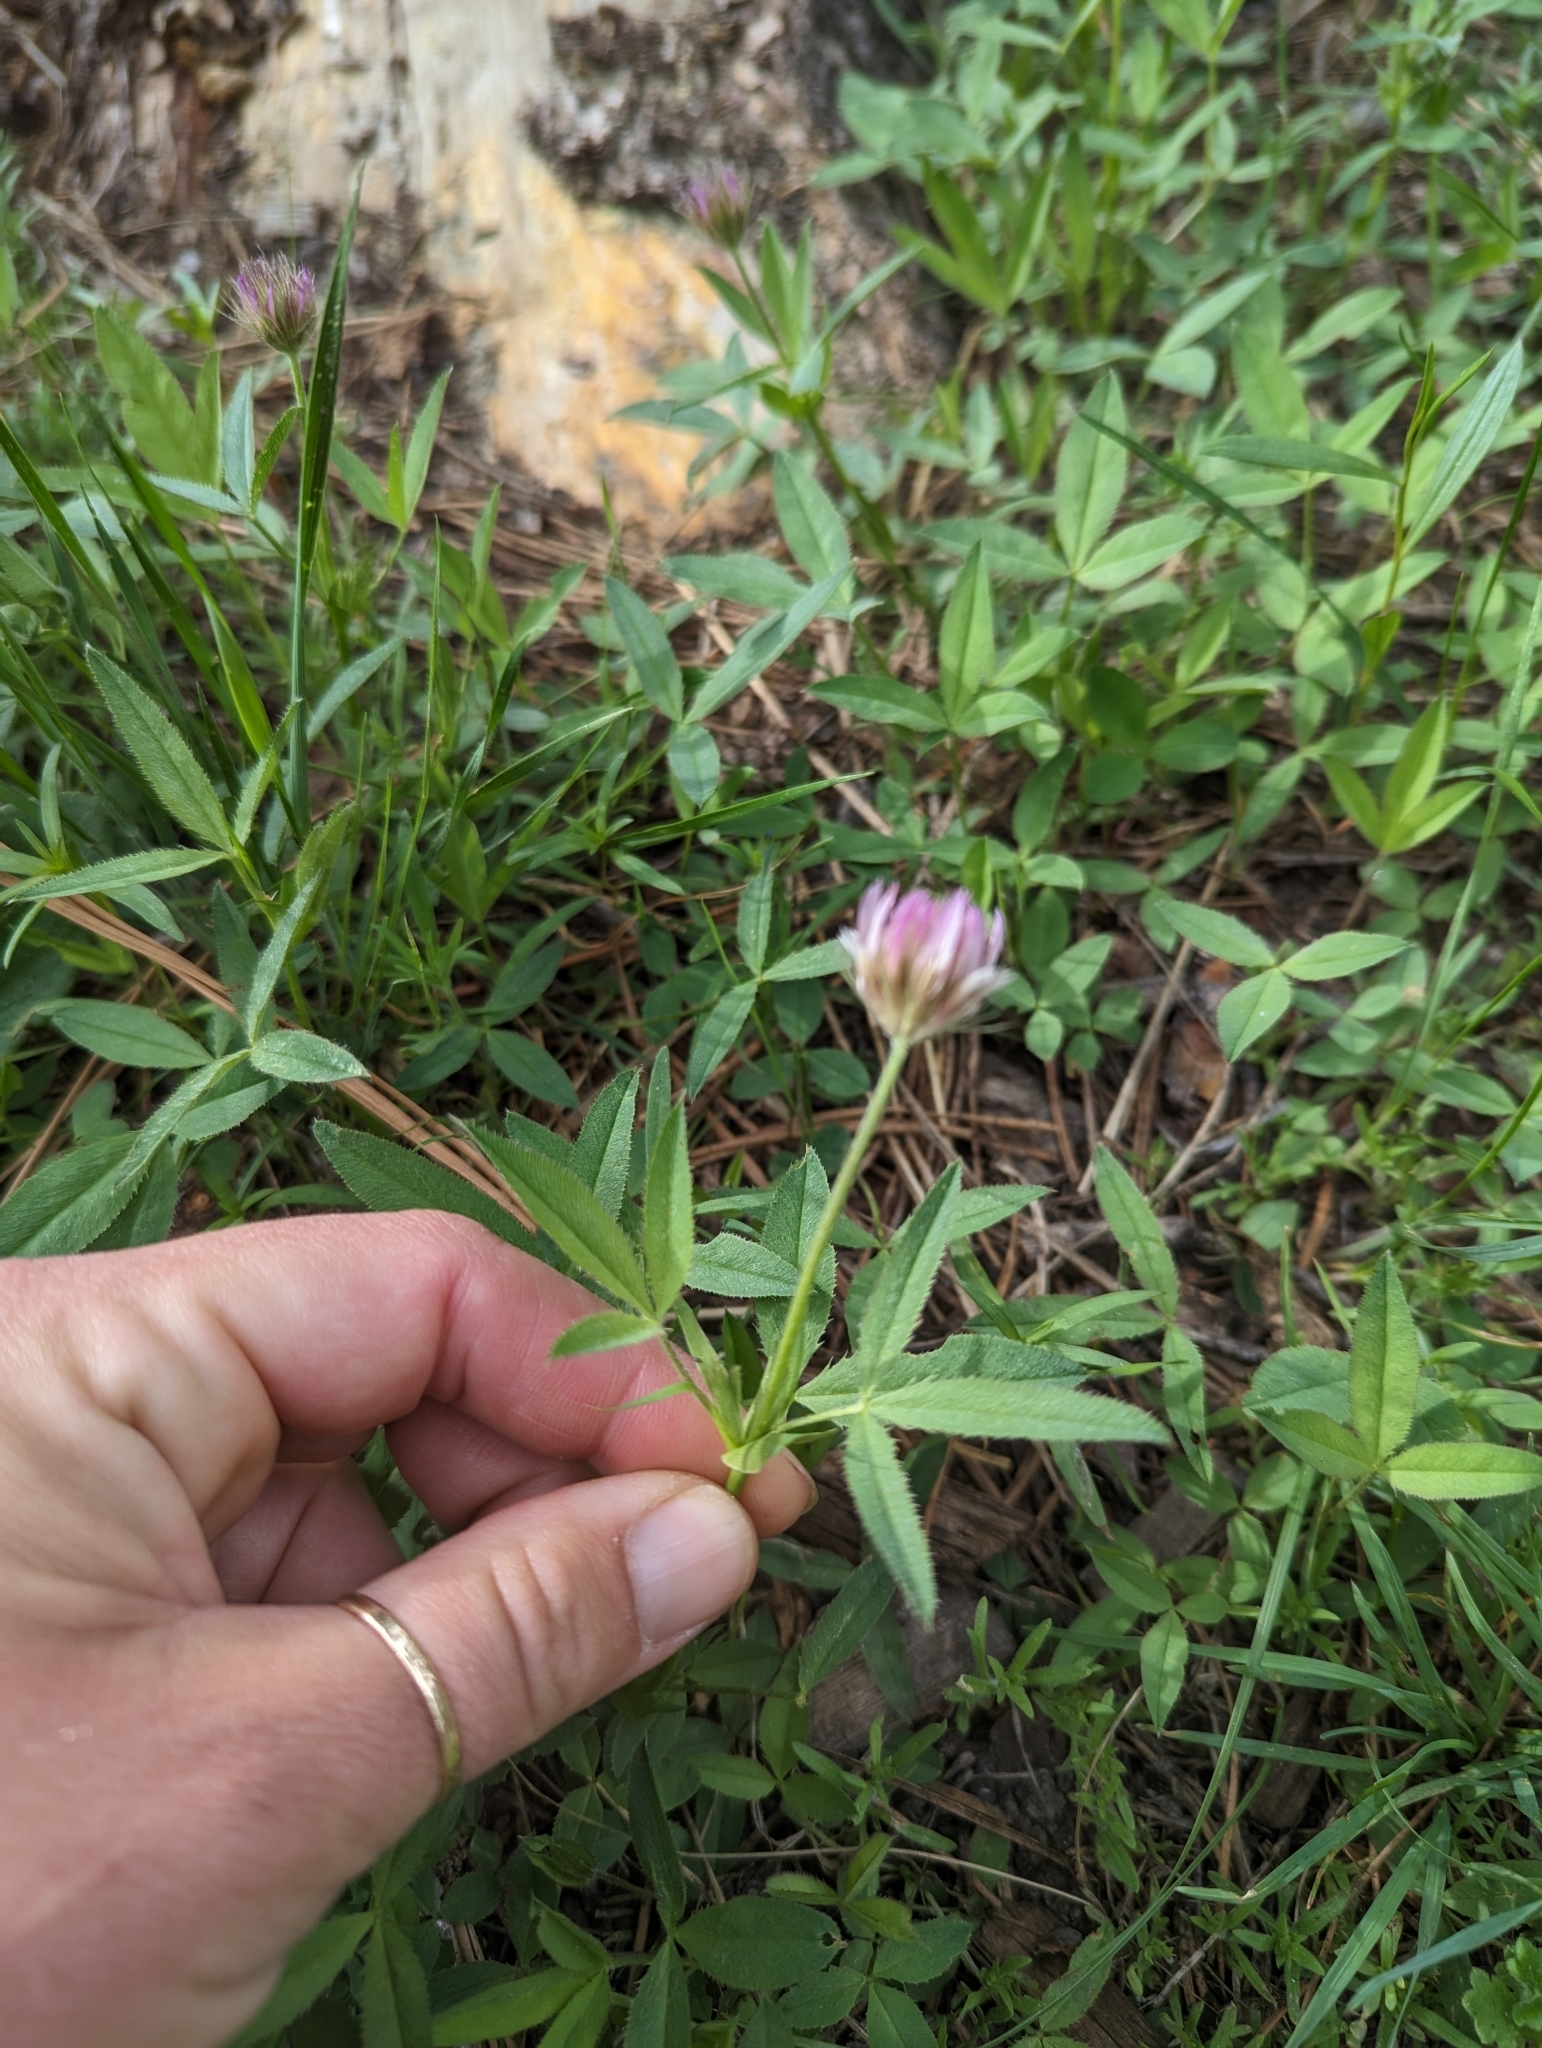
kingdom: Plantae
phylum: Tracheophyta
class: Magnoliopsida
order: Fabales
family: Fabaceae
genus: Trifolium
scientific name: Trifolium longipes
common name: Long-stalk clover
